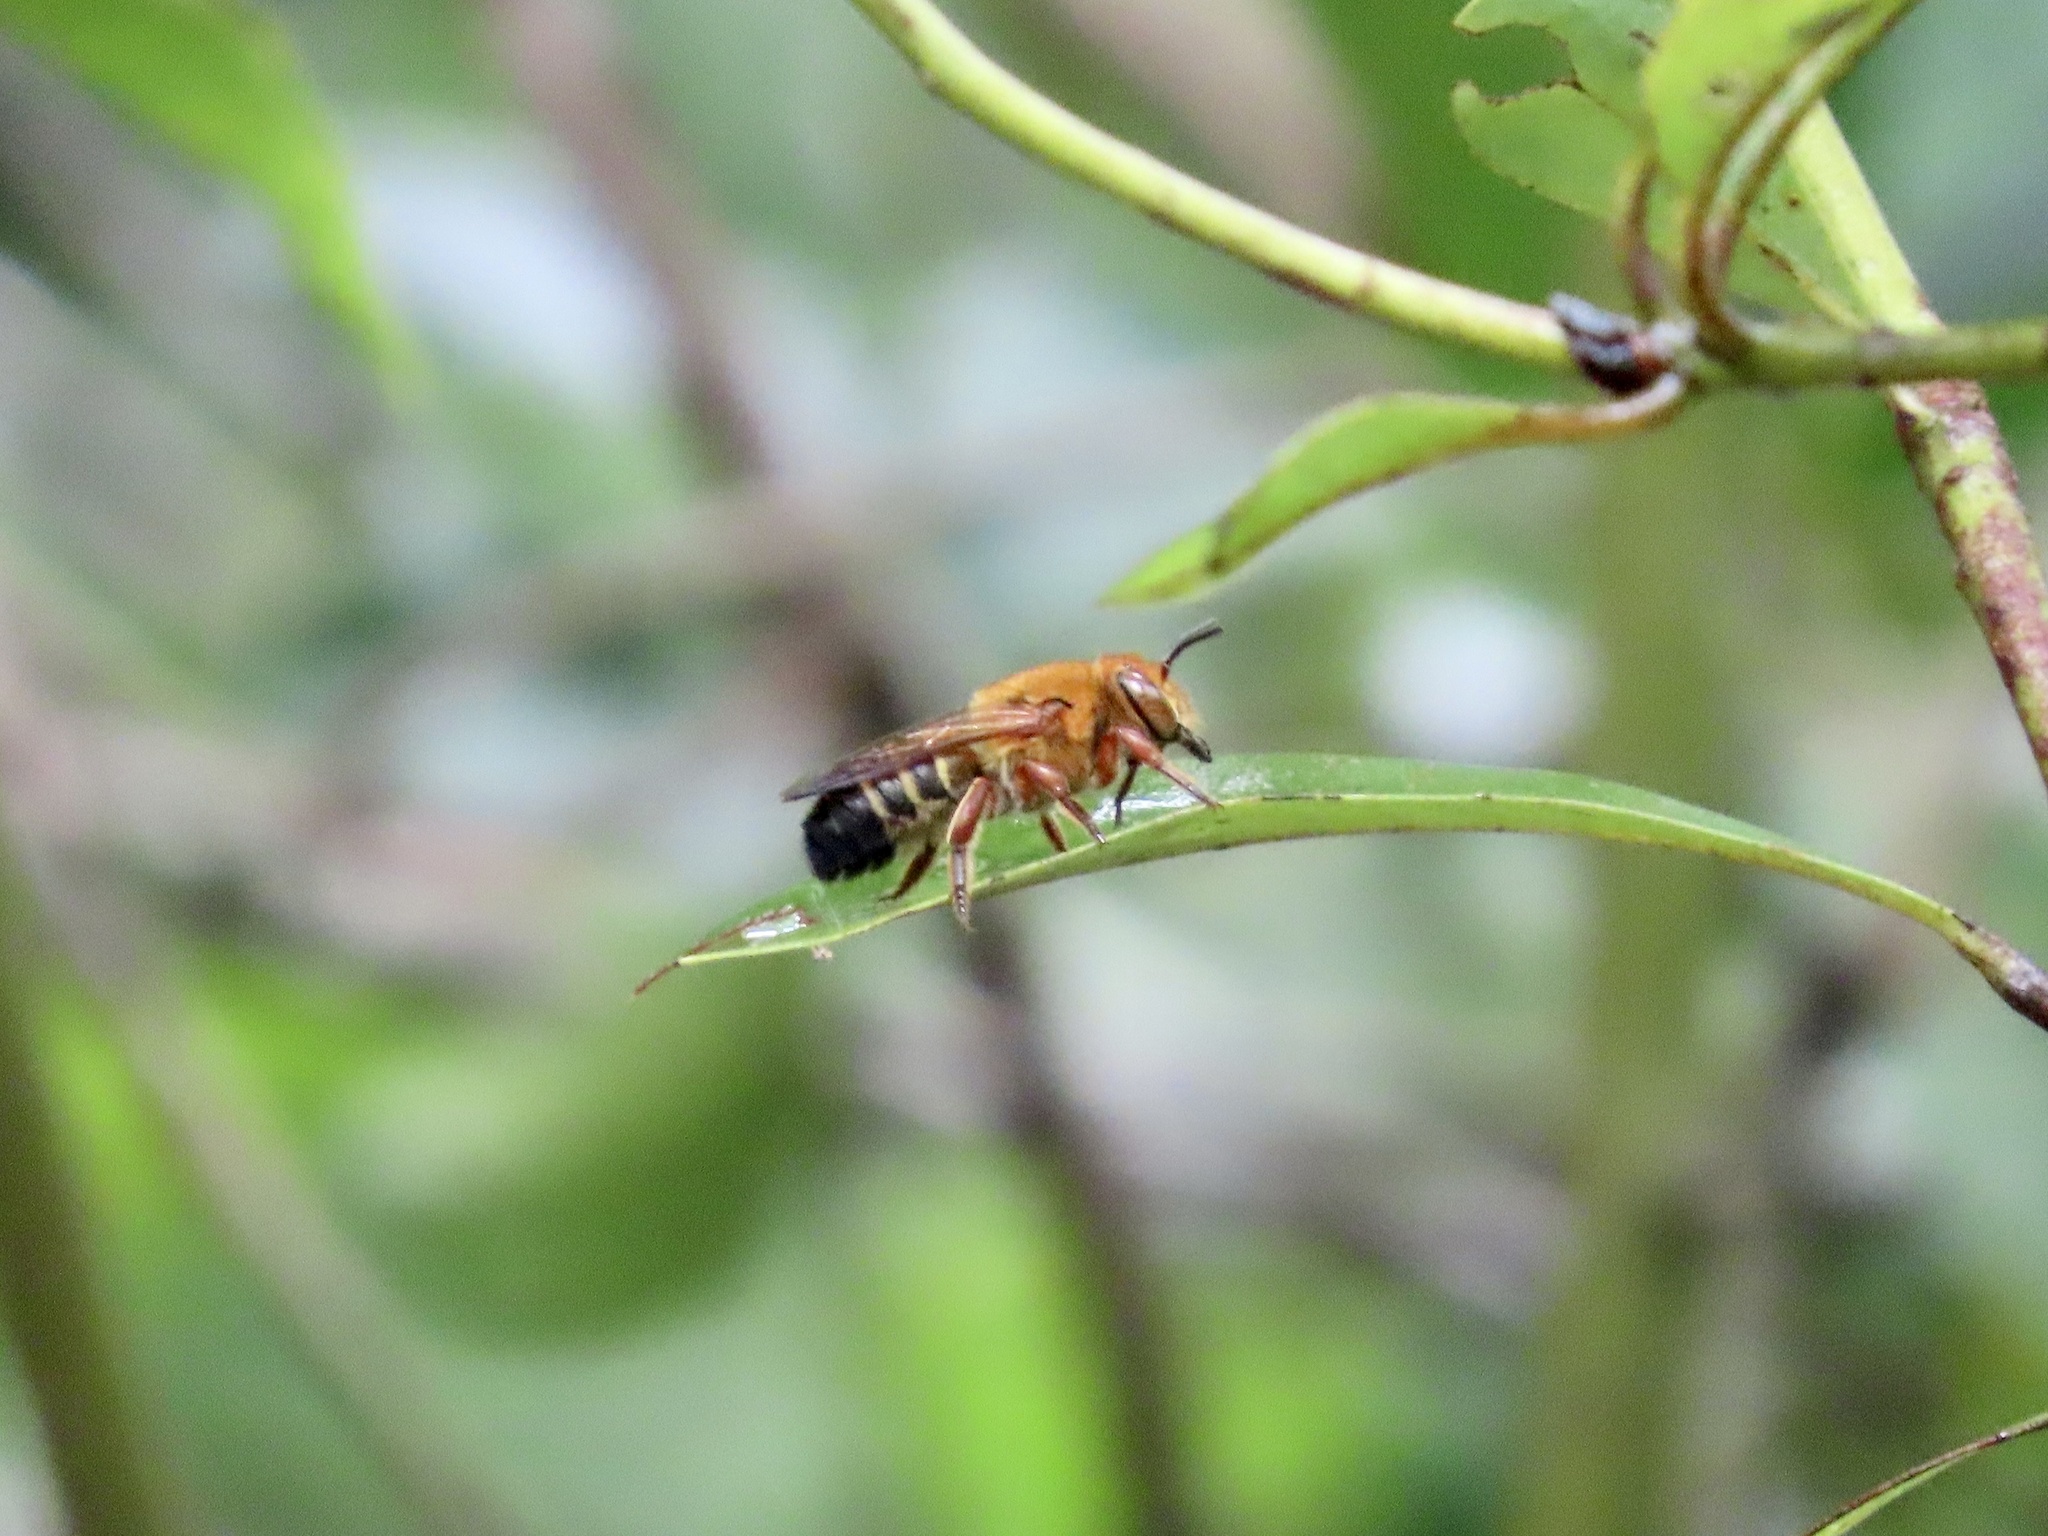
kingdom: Animalia
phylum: Arthropoda
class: Insecta
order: Hymenoptera
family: Megachilidae
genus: Megachile
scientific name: Megachile ferruginea
